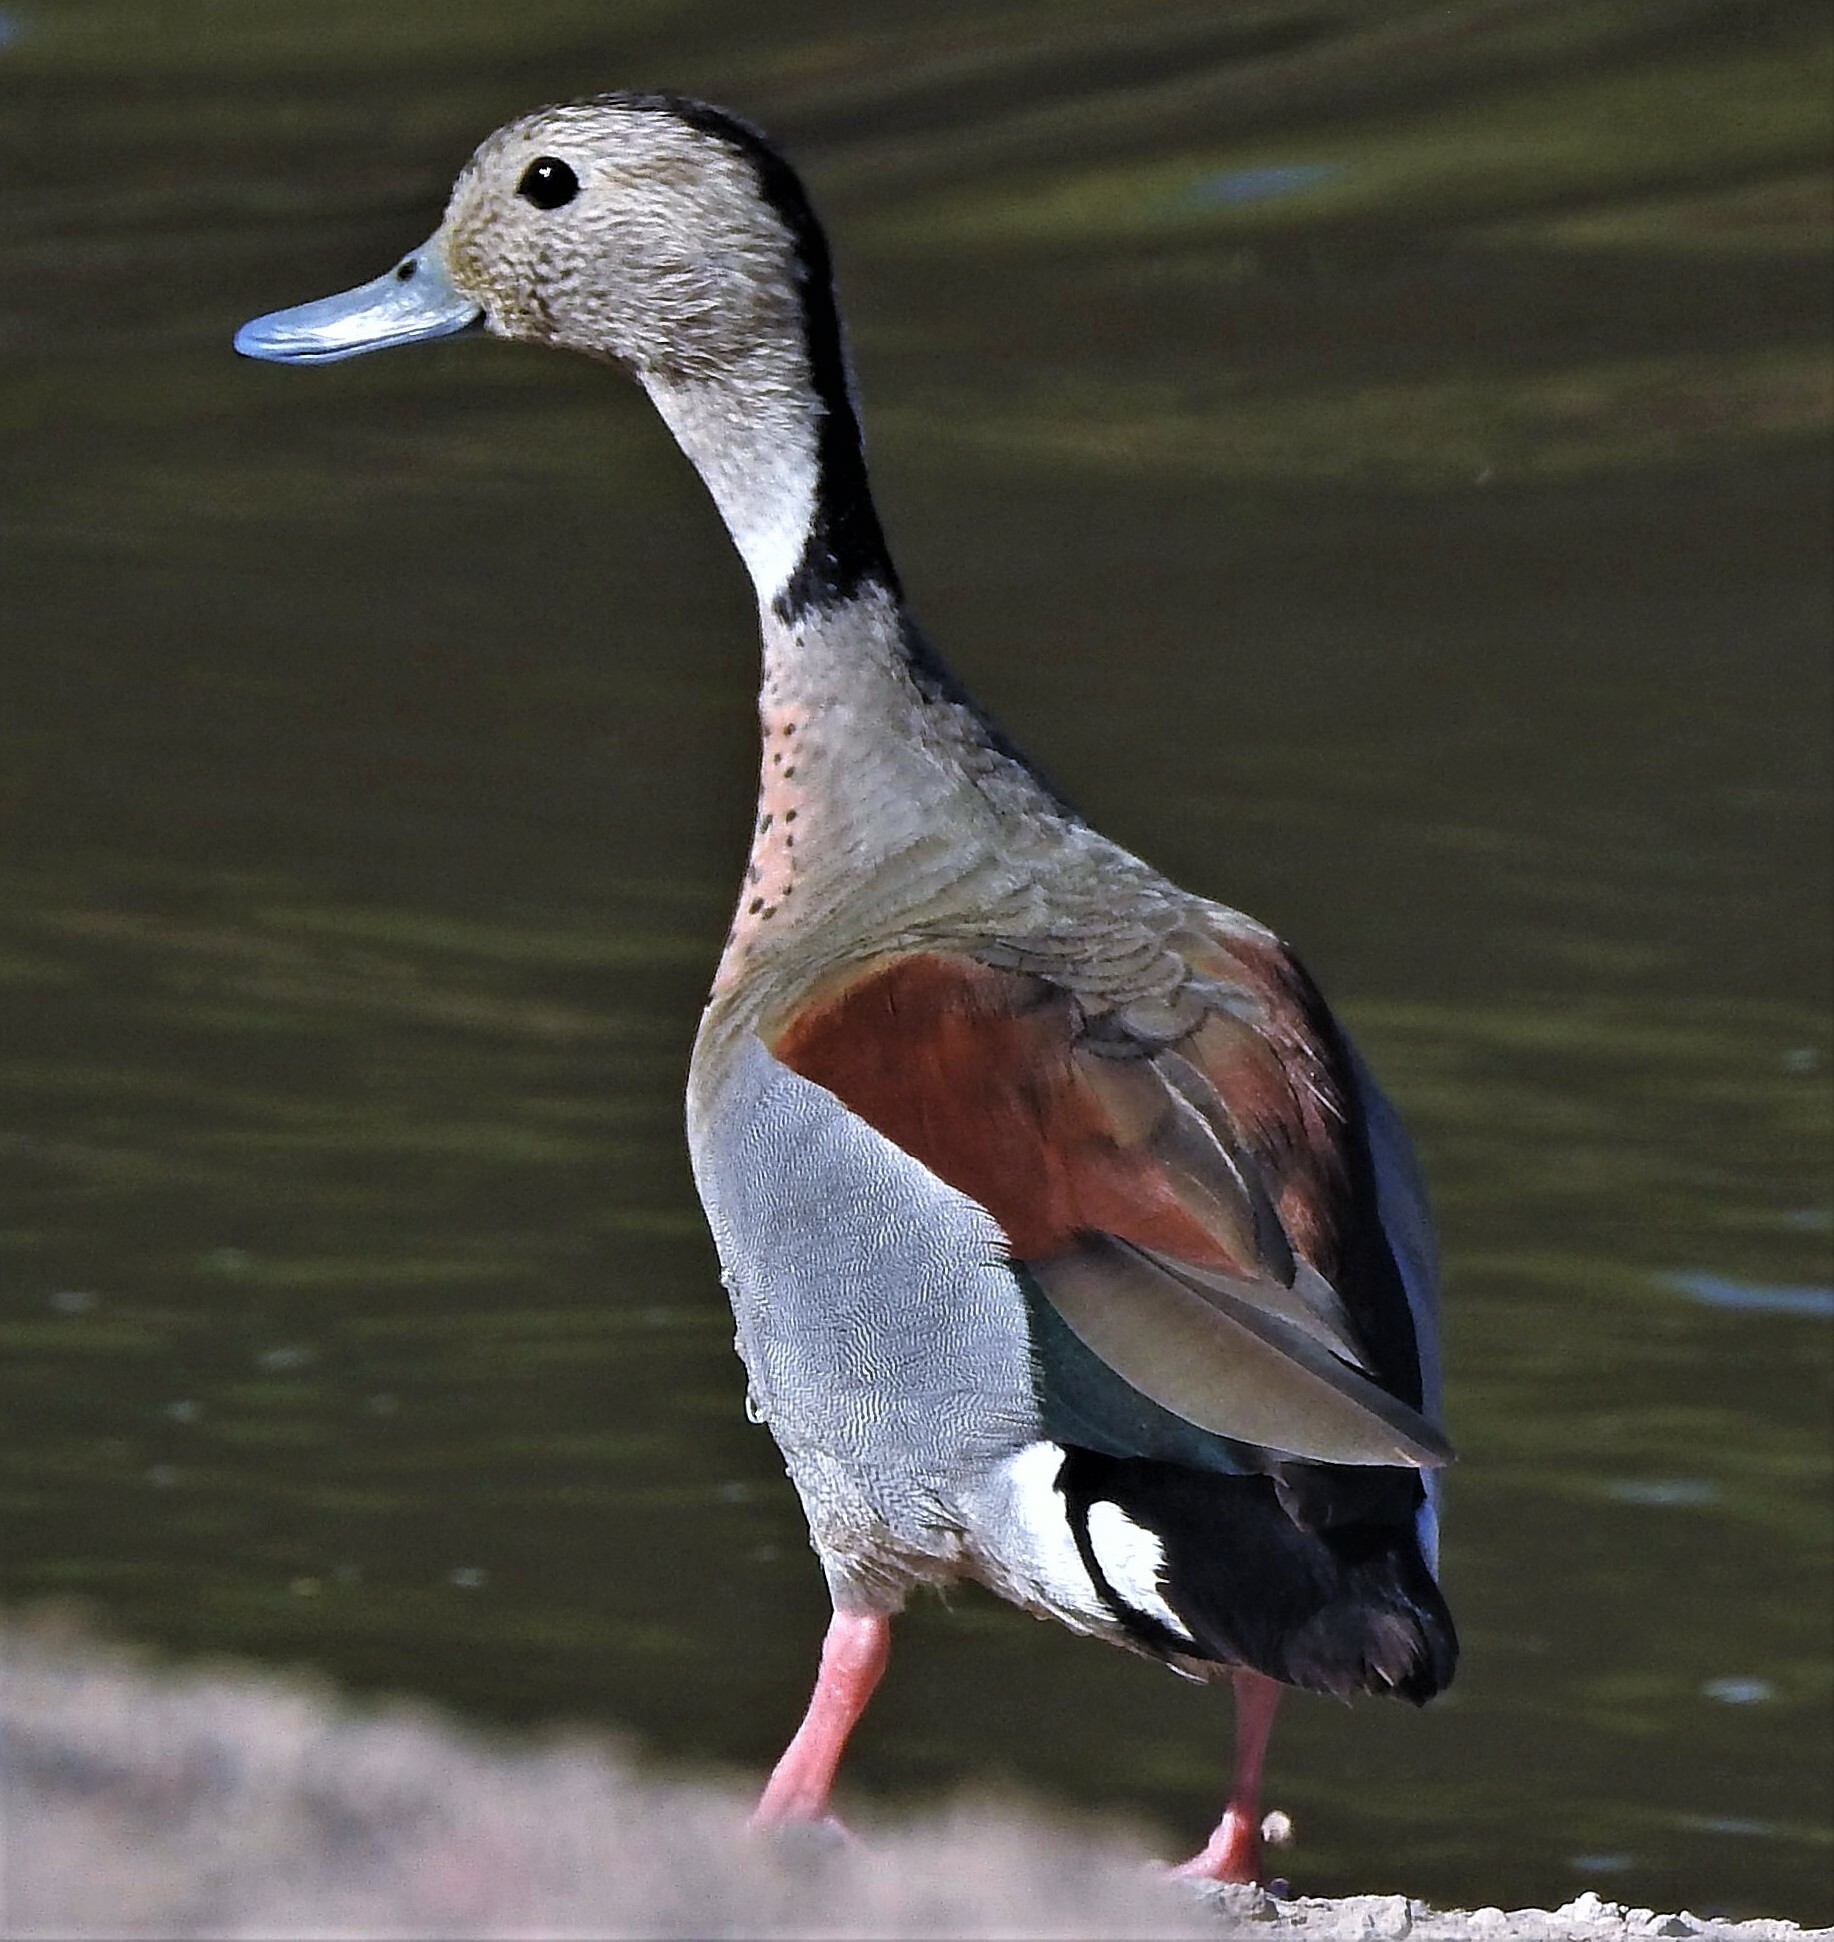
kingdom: Animalia
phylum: Chordata
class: Aves
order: Anseriformes
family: Anatidae
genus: Callonetta
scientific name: Callonetta leucophrys
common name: Ringed teal
